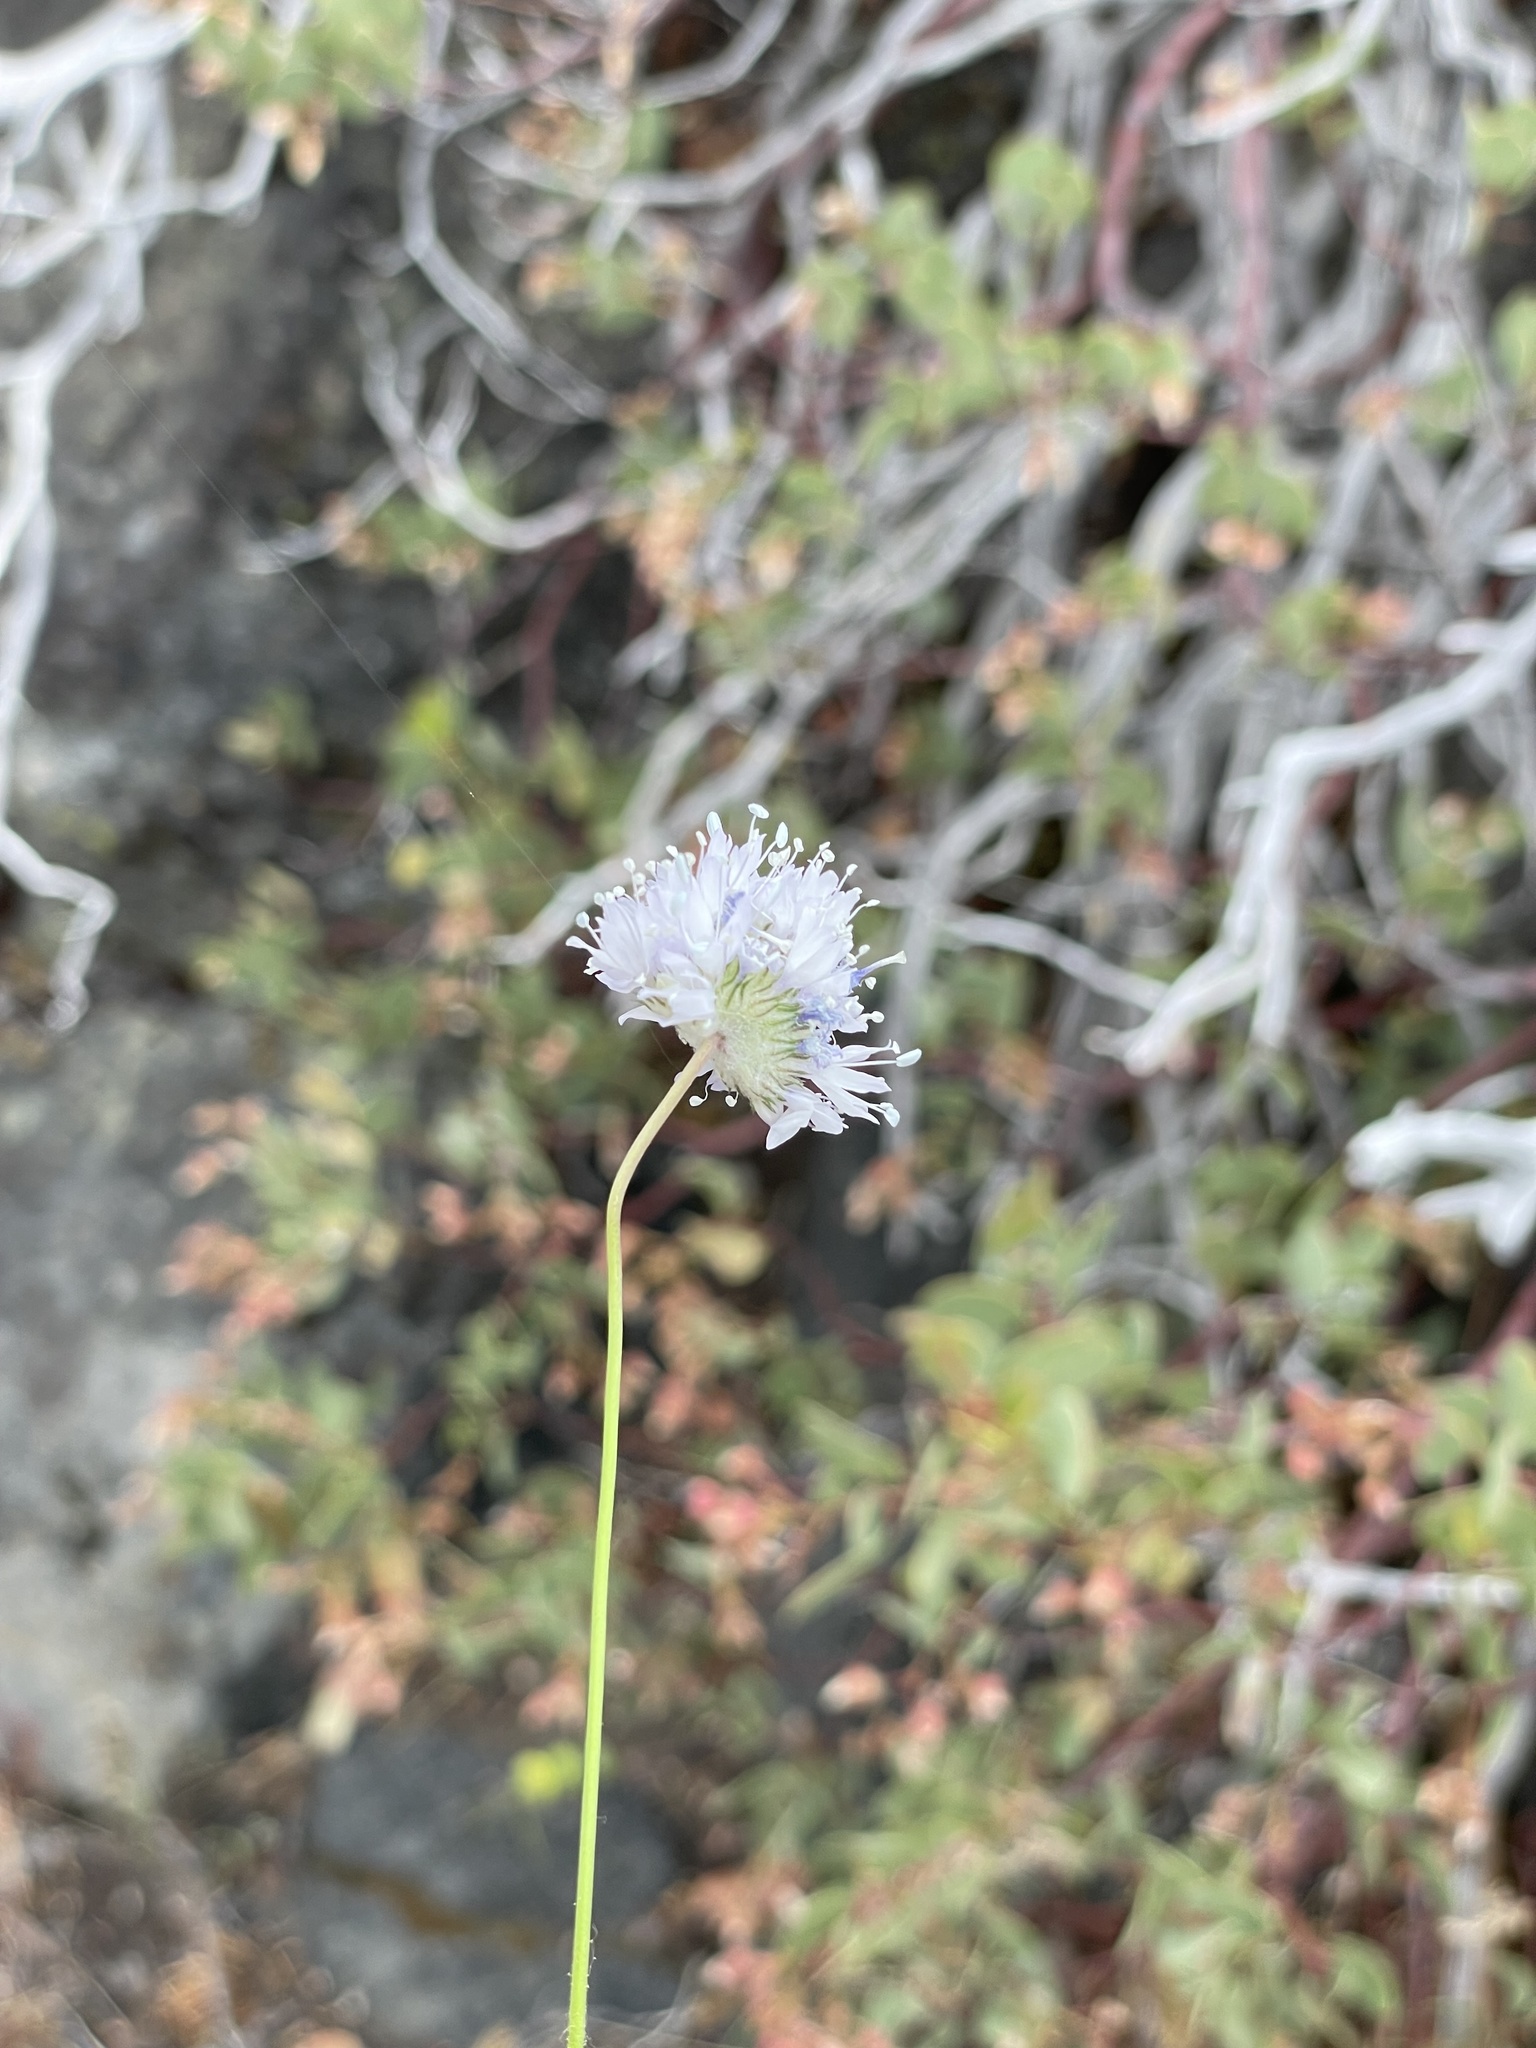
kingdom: Plantae
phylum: Tracheophyta
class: Magnoliopsida
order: Ericales
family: Polemoniaceae
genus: Gilia
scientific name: Gilia capitata
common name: Bluehead gilia
